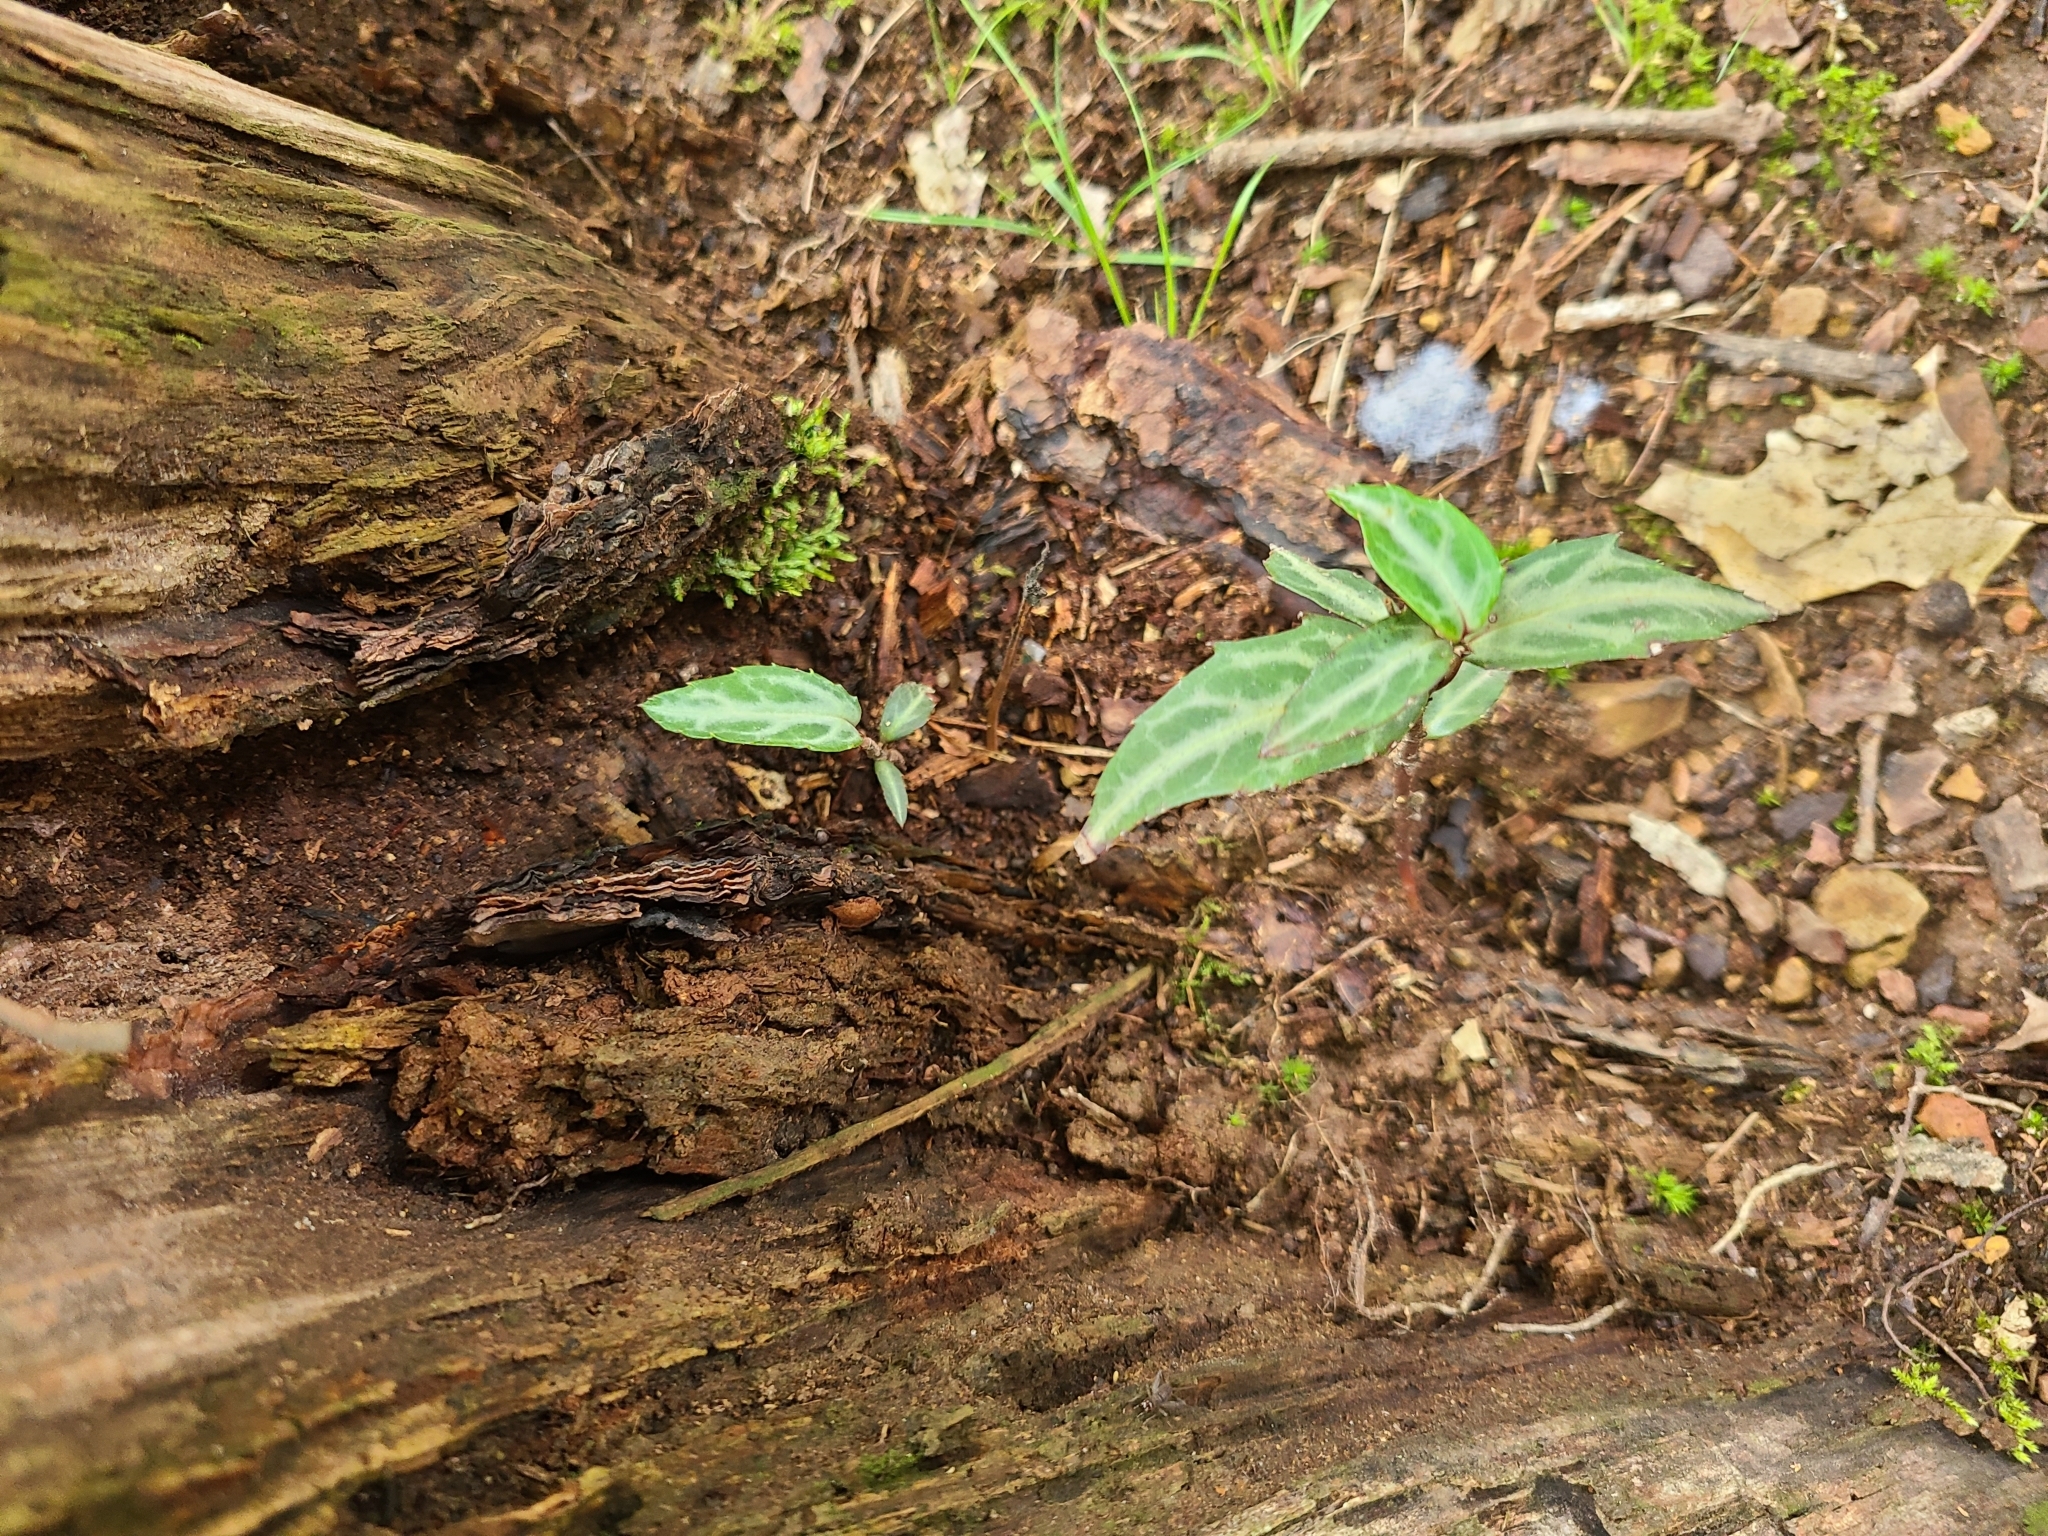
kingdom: Plantae
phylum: Tracheophyta
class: Magnoliopsida
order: Ericales
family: Ericaceae
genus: Chimaphila
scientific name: Chimaphila maculata
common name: Spotted pipsissewa
